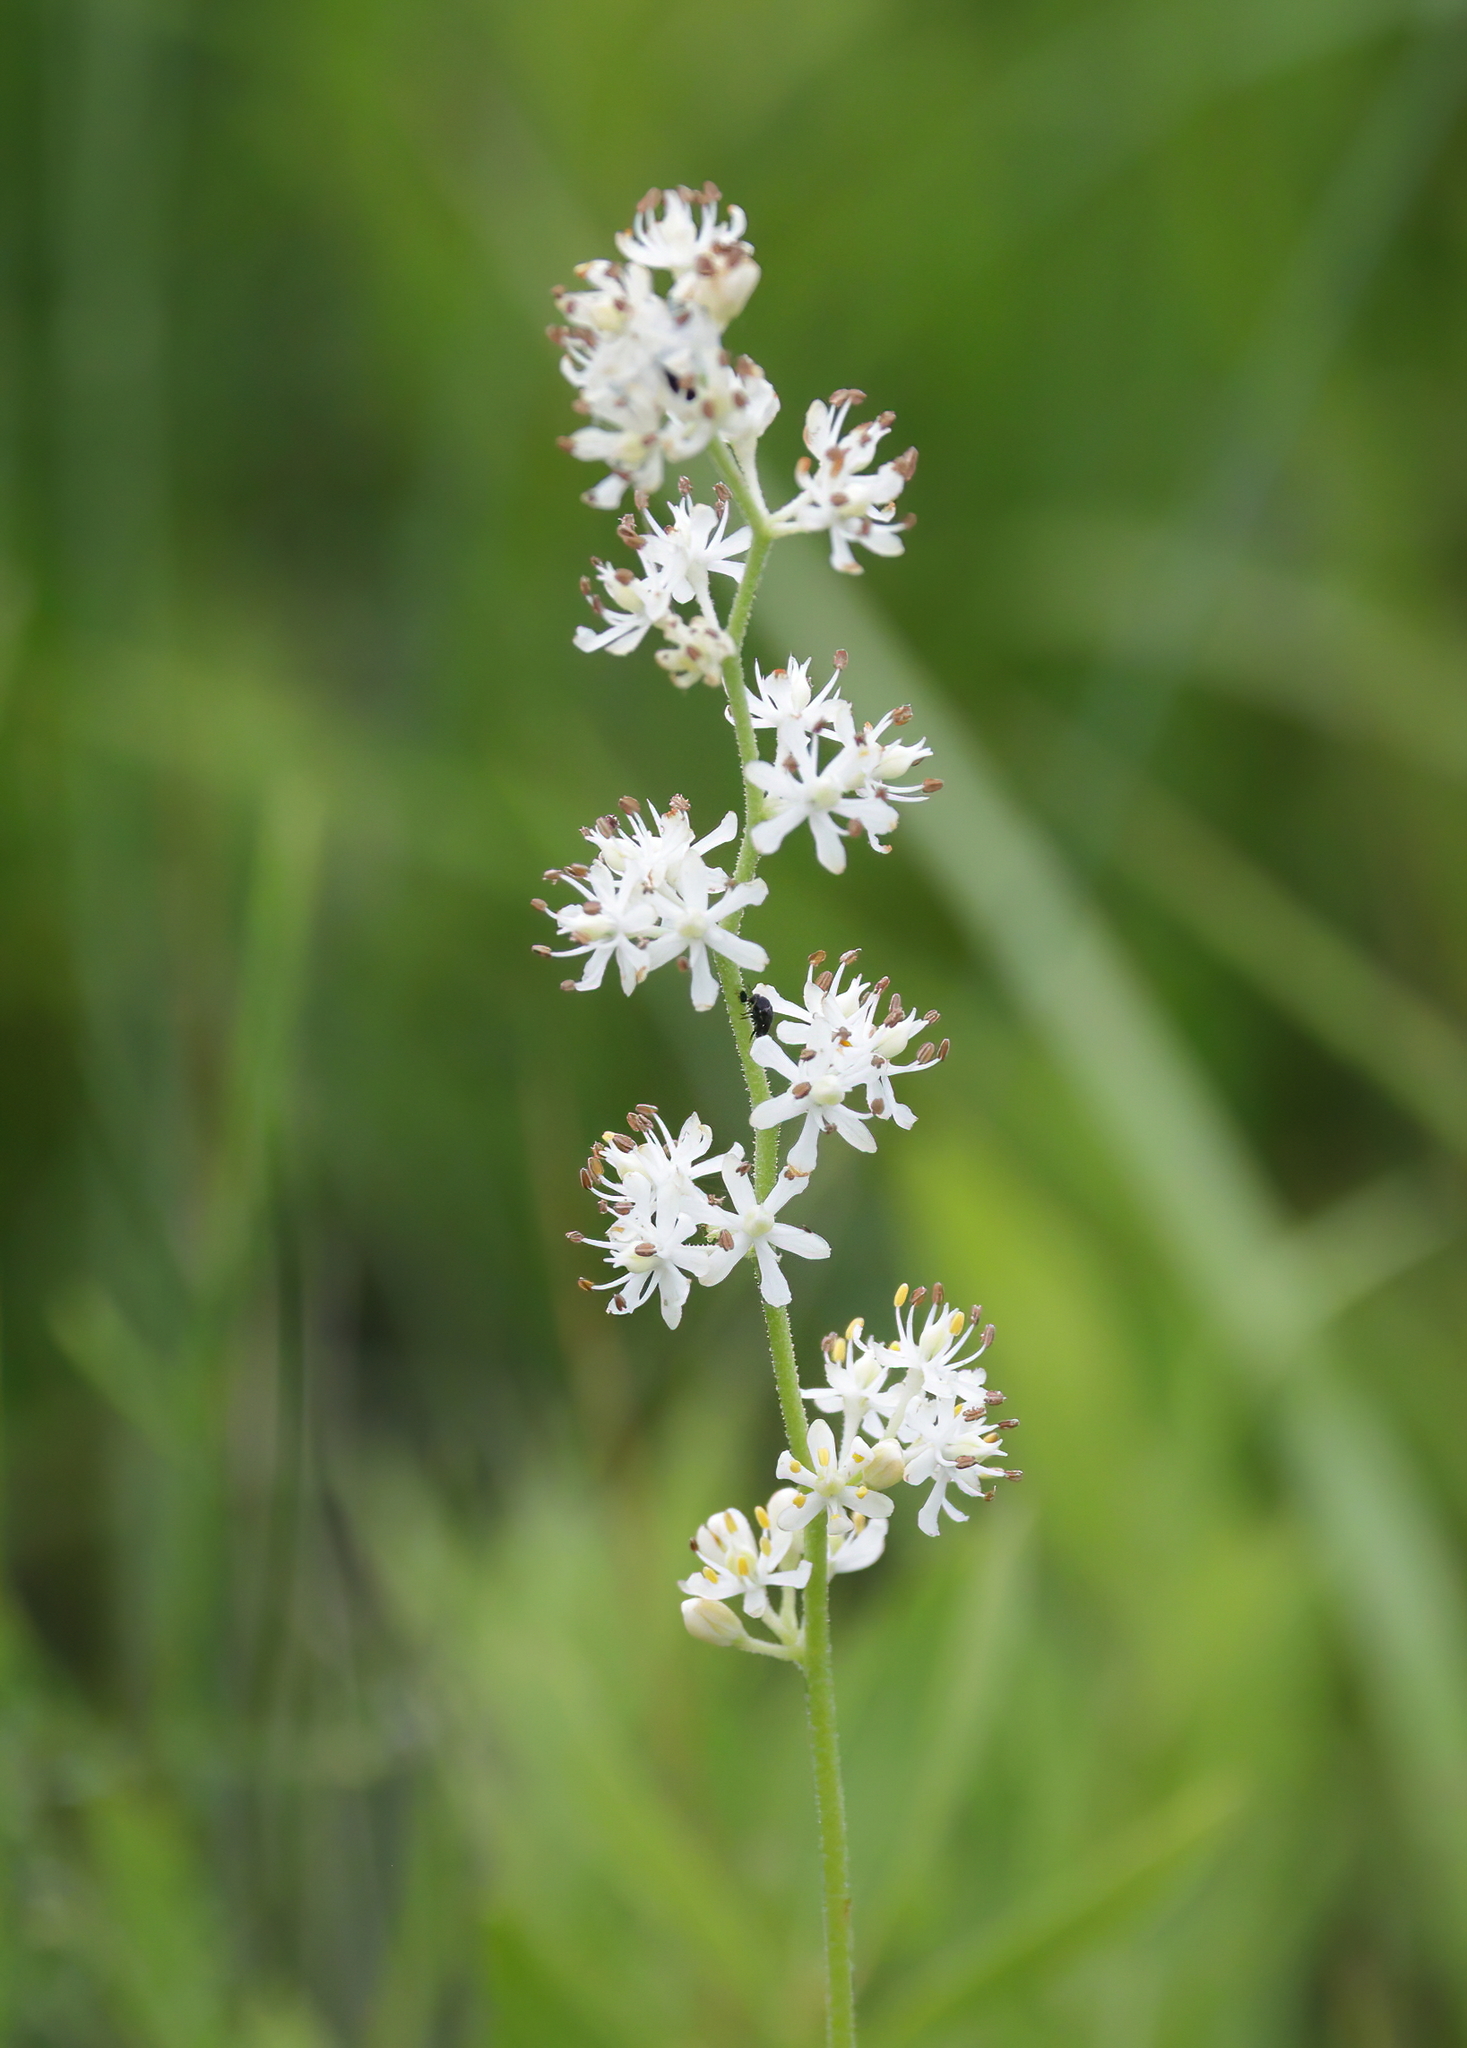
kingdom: Plantae
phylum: Tracheophyta
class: Liliopsida
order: Alismatales
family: Tofieldiaceae
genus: Triantha
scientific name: Triantha racemosa
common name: Coastal false asphodel
